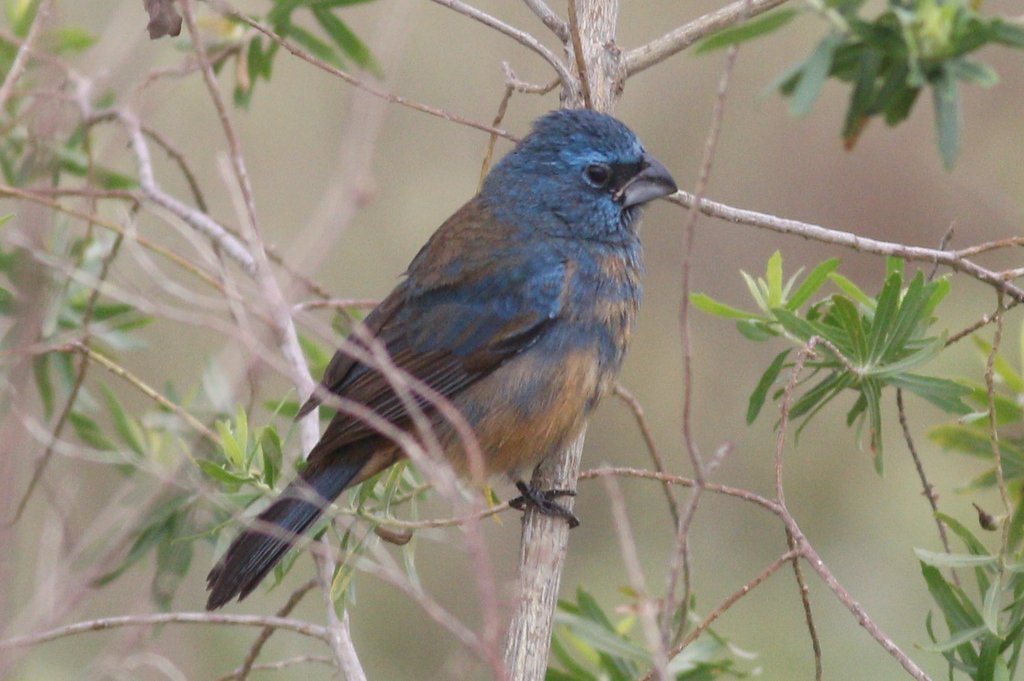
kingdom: Animalia
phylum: Chordata
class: Aves
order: Passeriformes
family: Cardinalidae
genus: Cyanoloxia
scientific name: Cyanoloxia glaucocaerulea
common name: Glaucous-blue grosbeak
